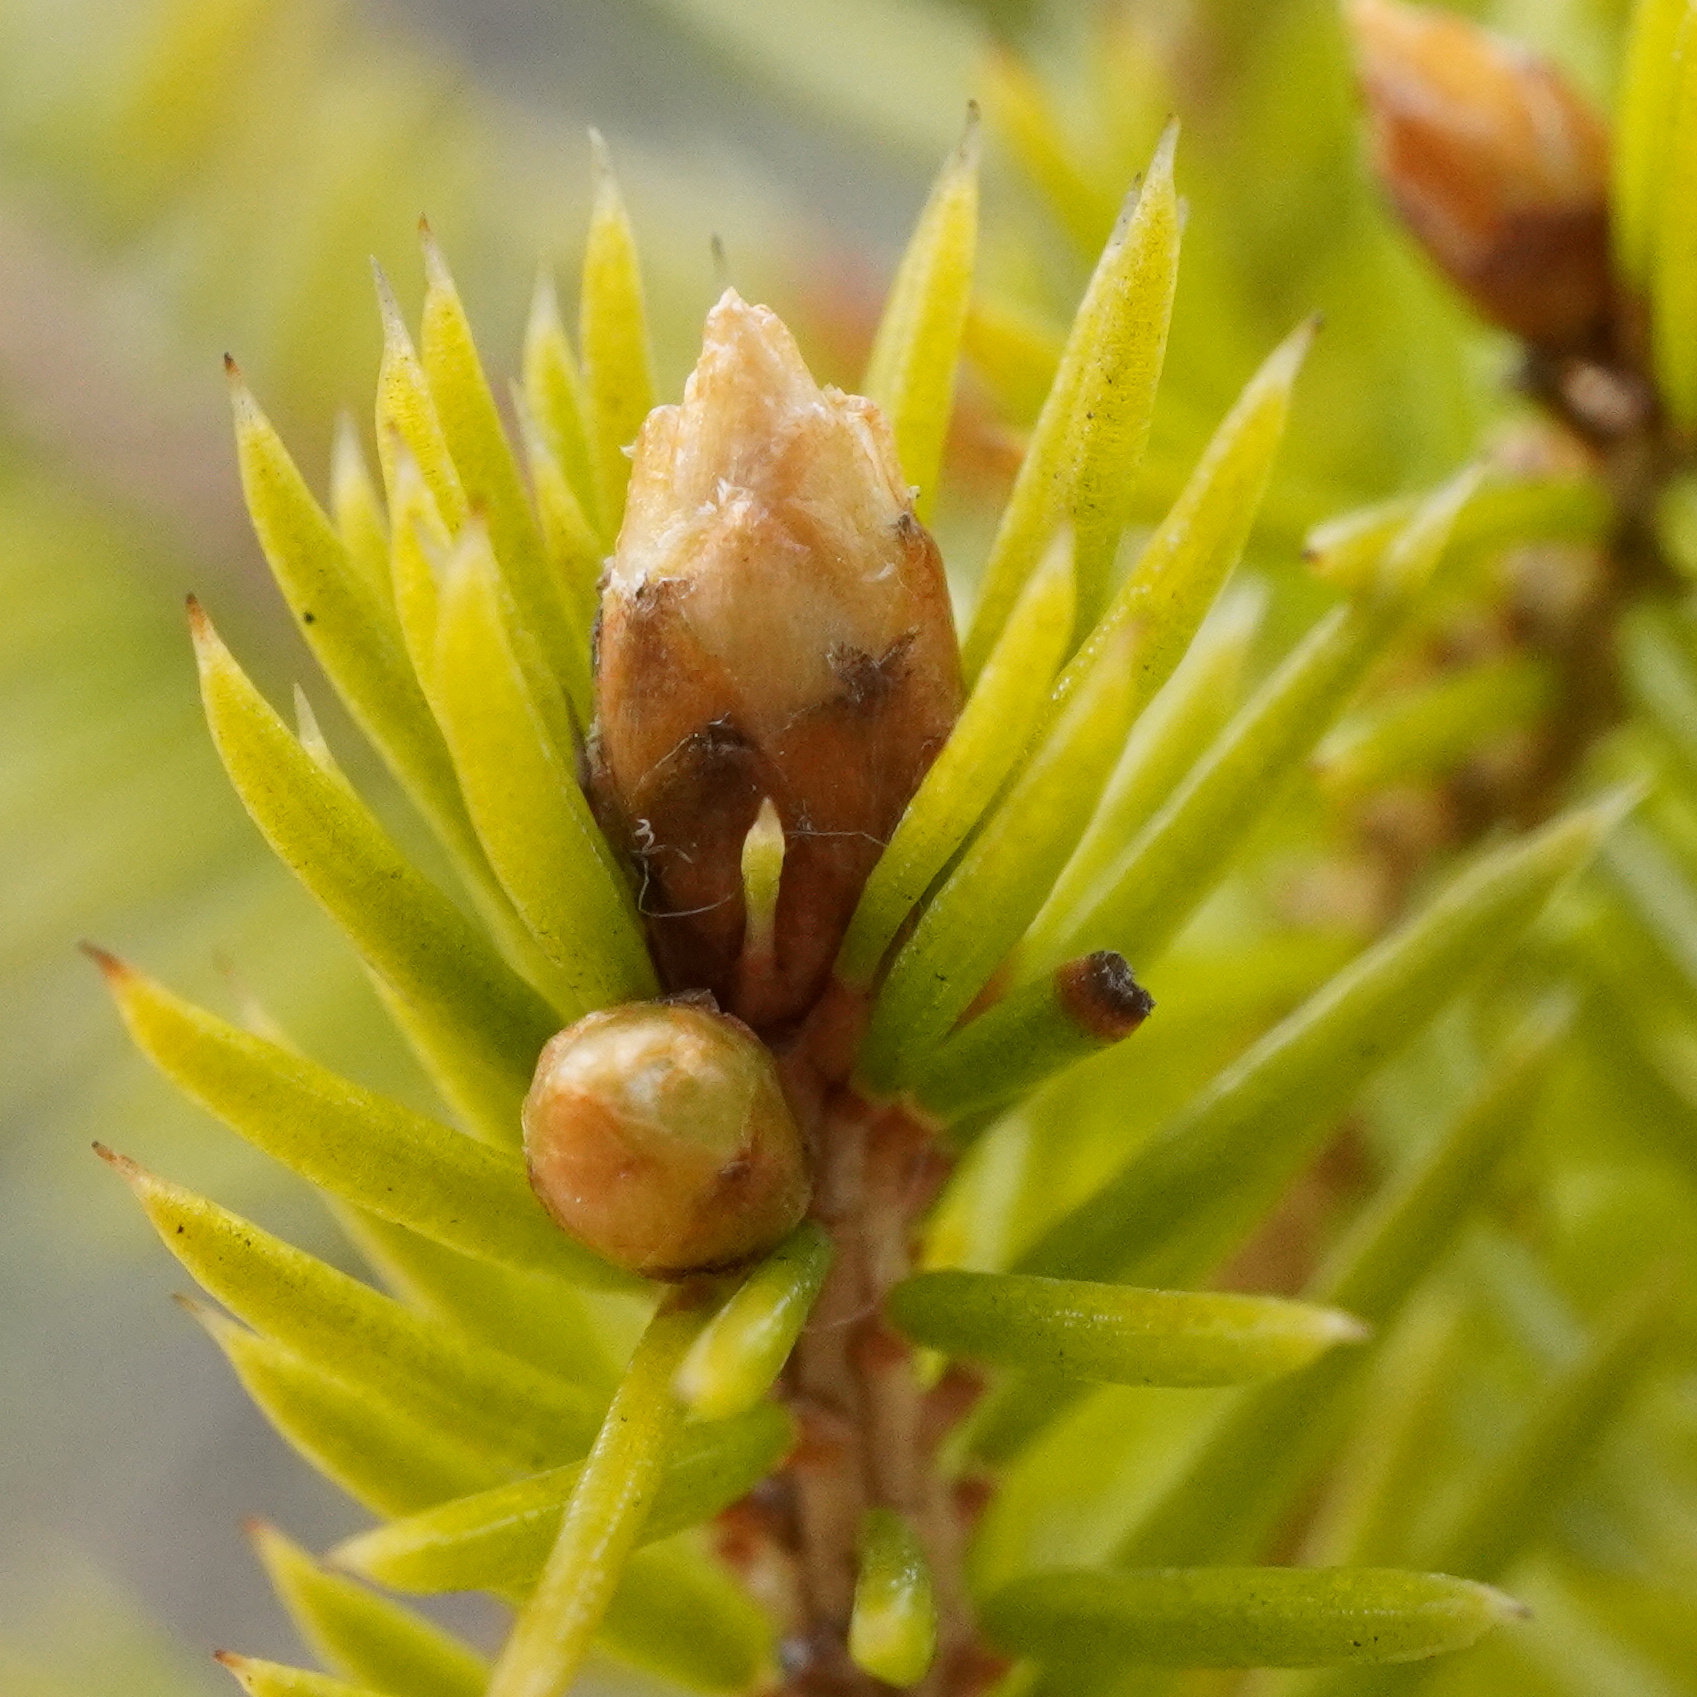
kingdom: Plantae
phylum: Tracheophyta
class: Pinopsida
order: Pinales
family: Pinaceae
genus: Picea
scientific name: Picea abies
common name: Norway spruce
